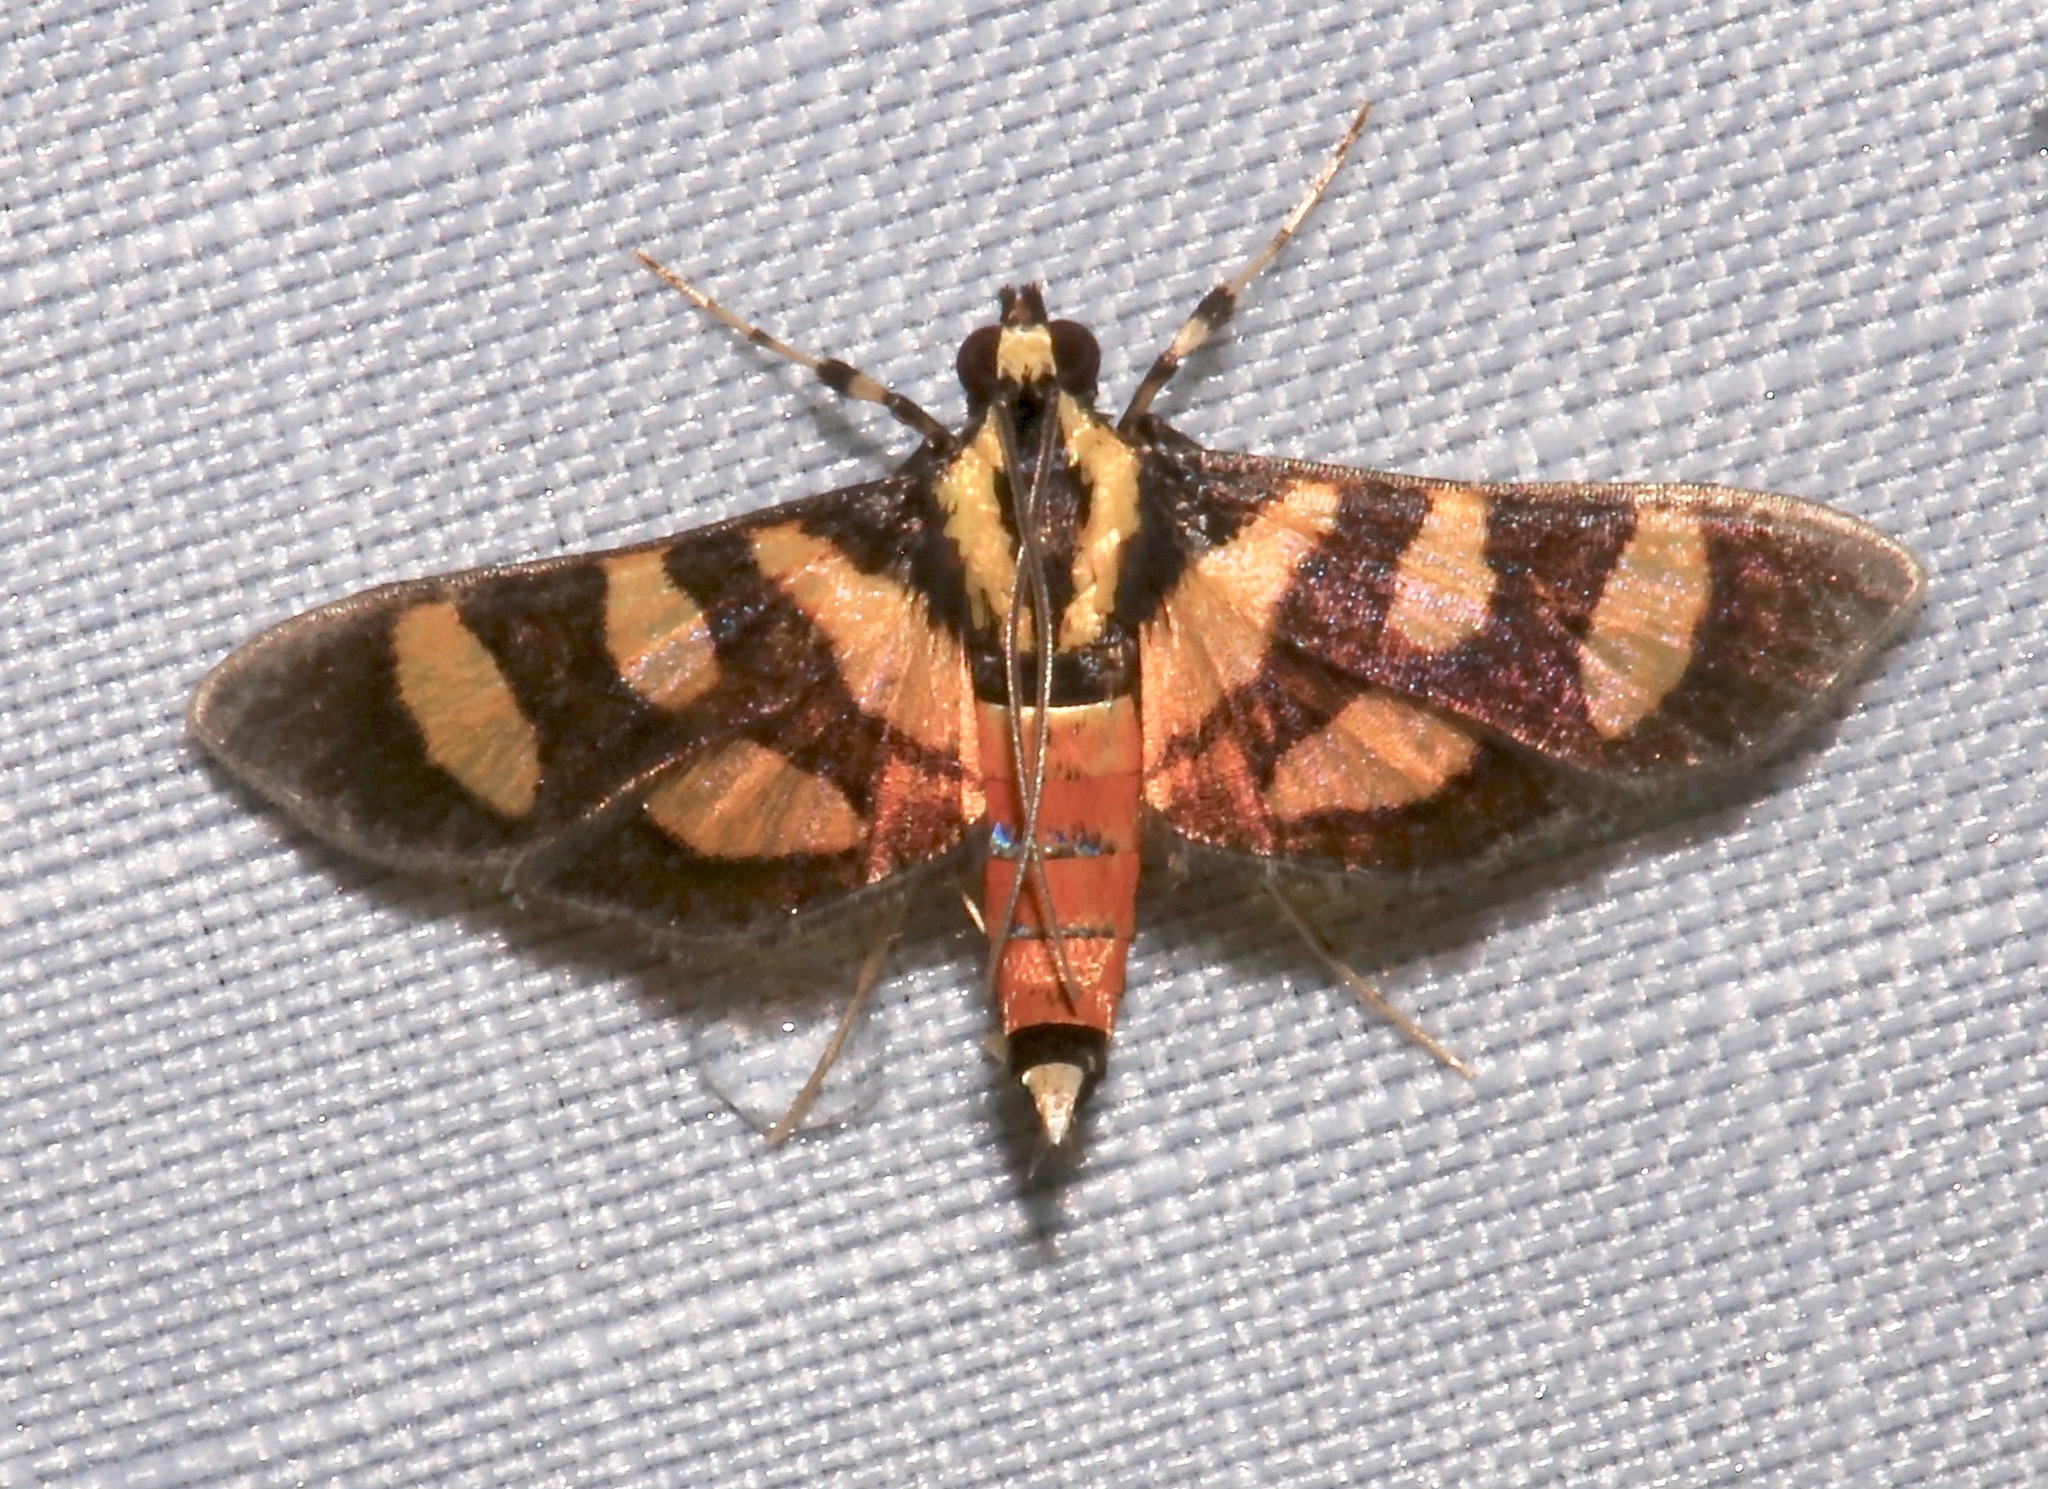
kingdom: Animalia
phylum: Arthropoda
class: Insecta
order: Lepidoptera
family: Crambidae
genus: Syngamia
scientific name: Syngamia florella
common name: Orange-spotted flower moth
